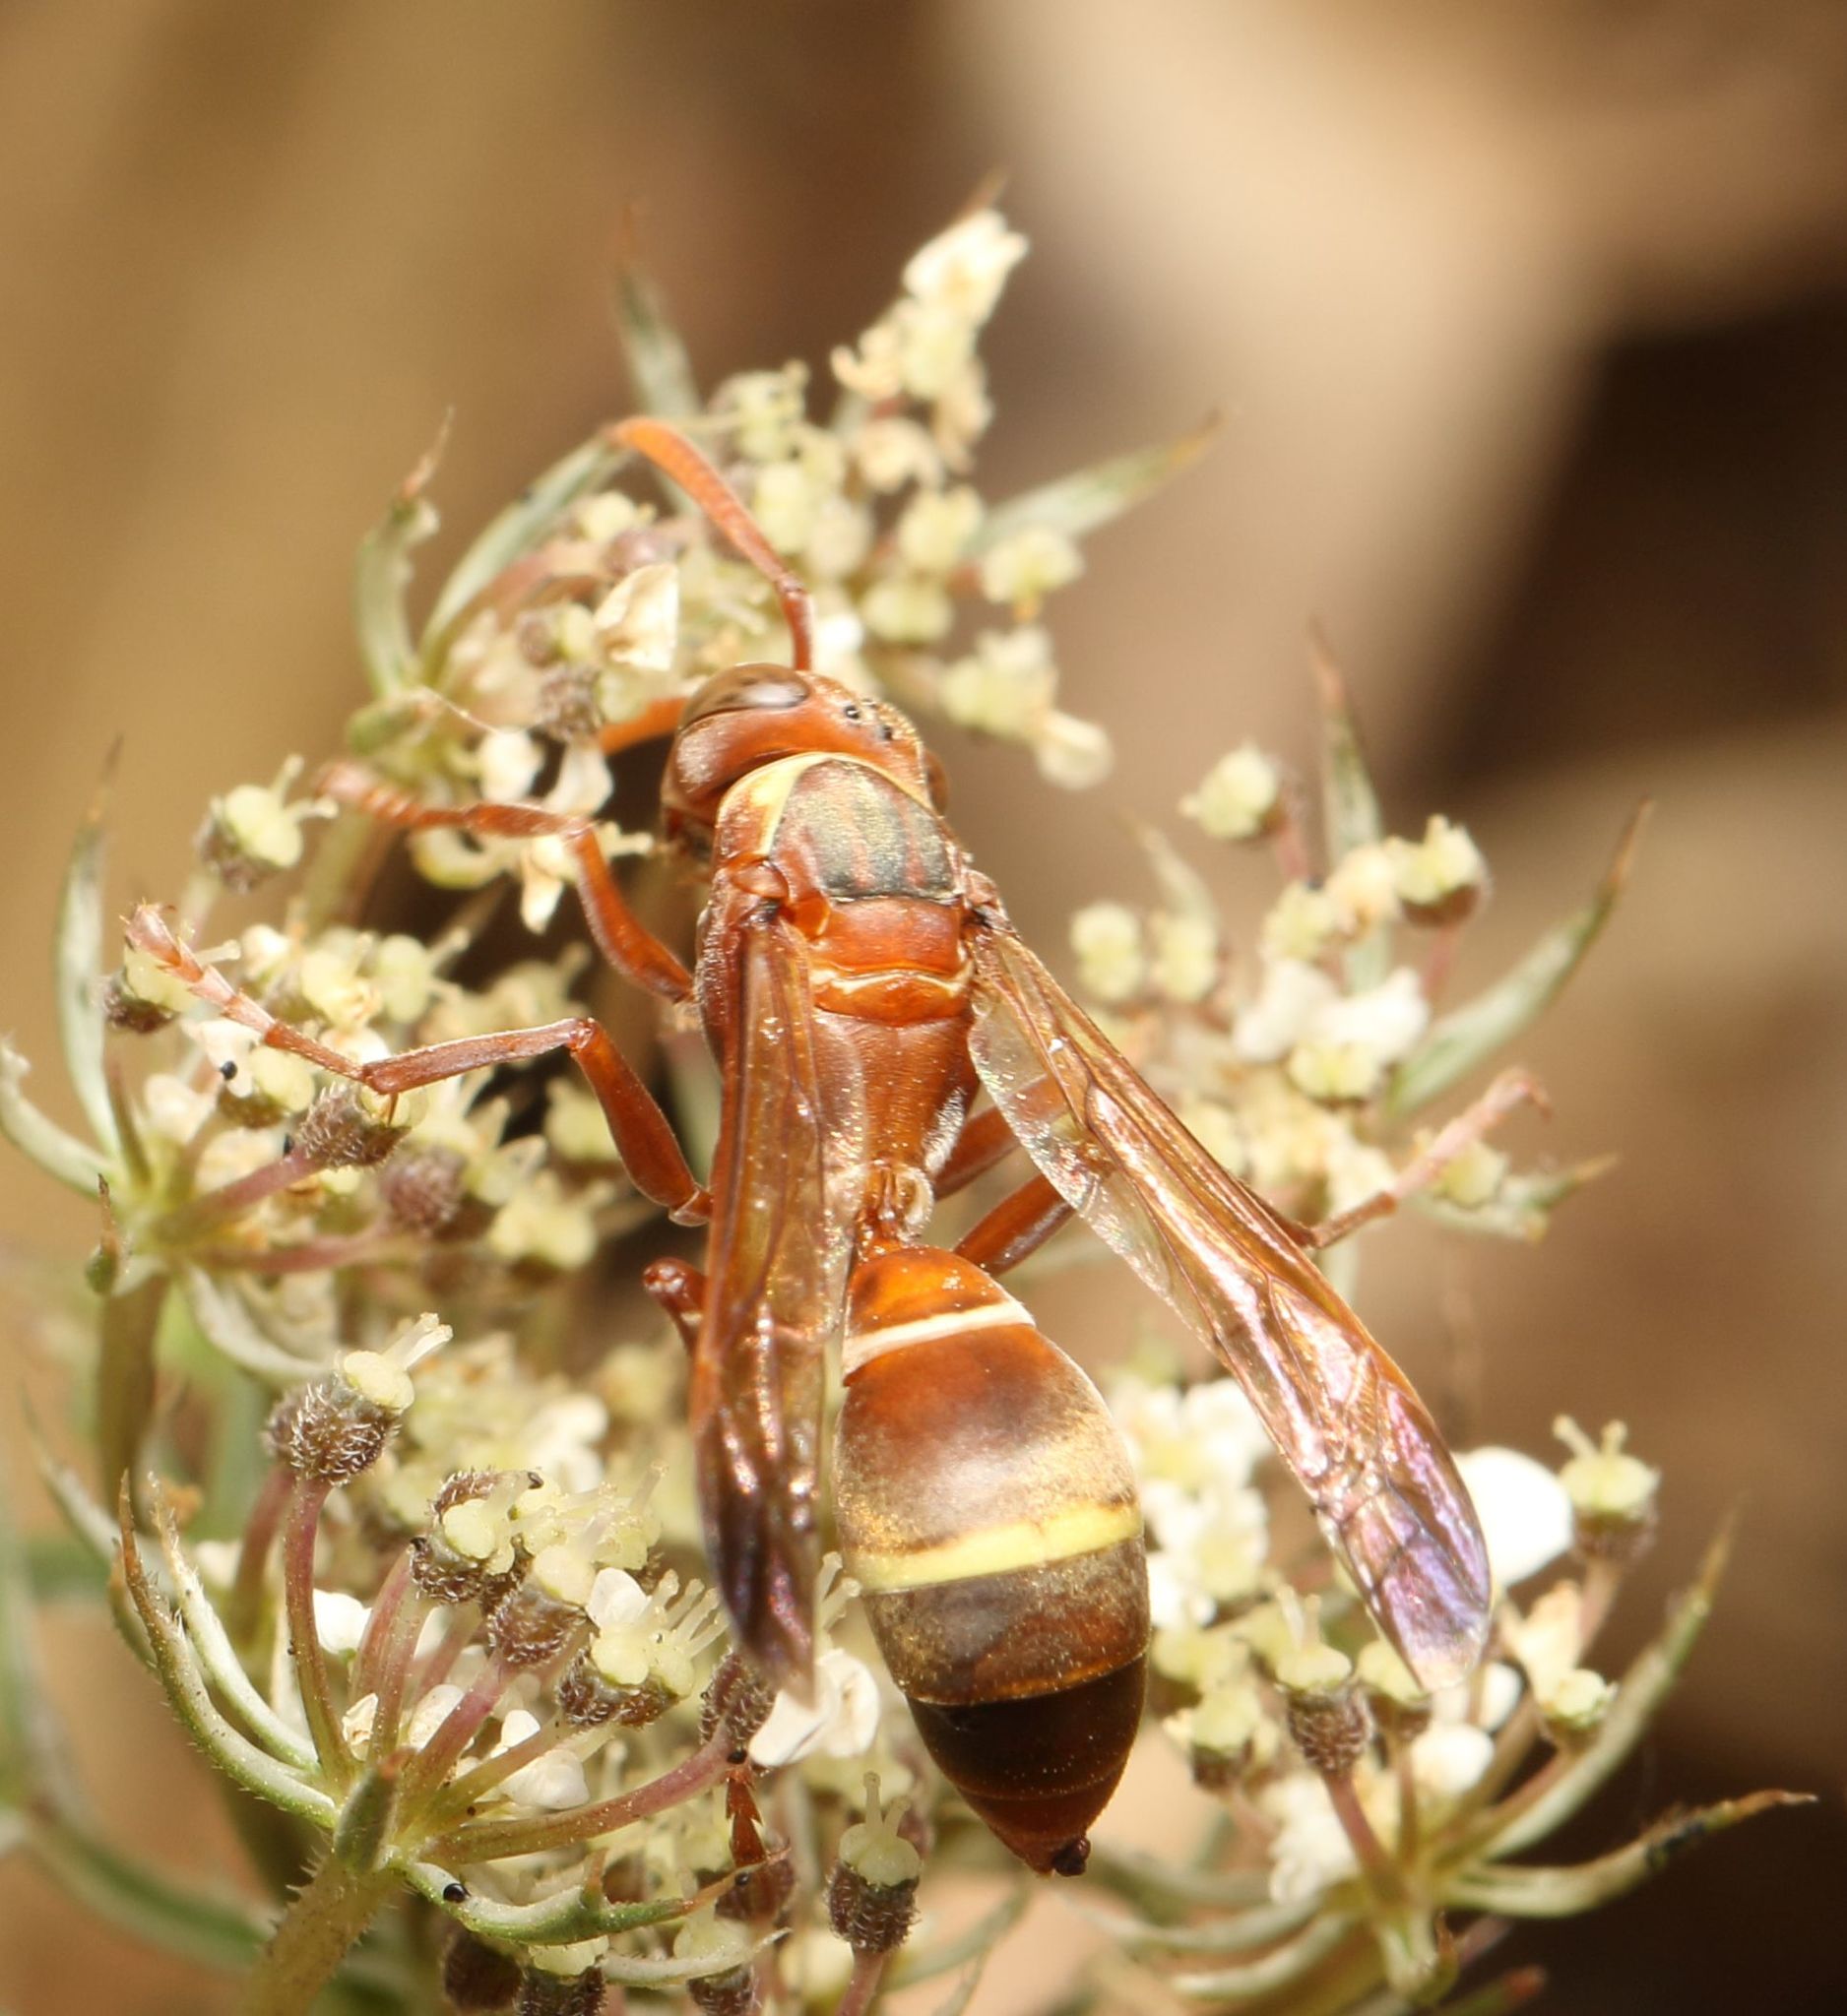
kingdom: Animalia
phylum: Arthropoda
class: Insecta
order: Hymenoptera
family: Eumenidae
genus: Polistes
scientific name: Polistes badius
